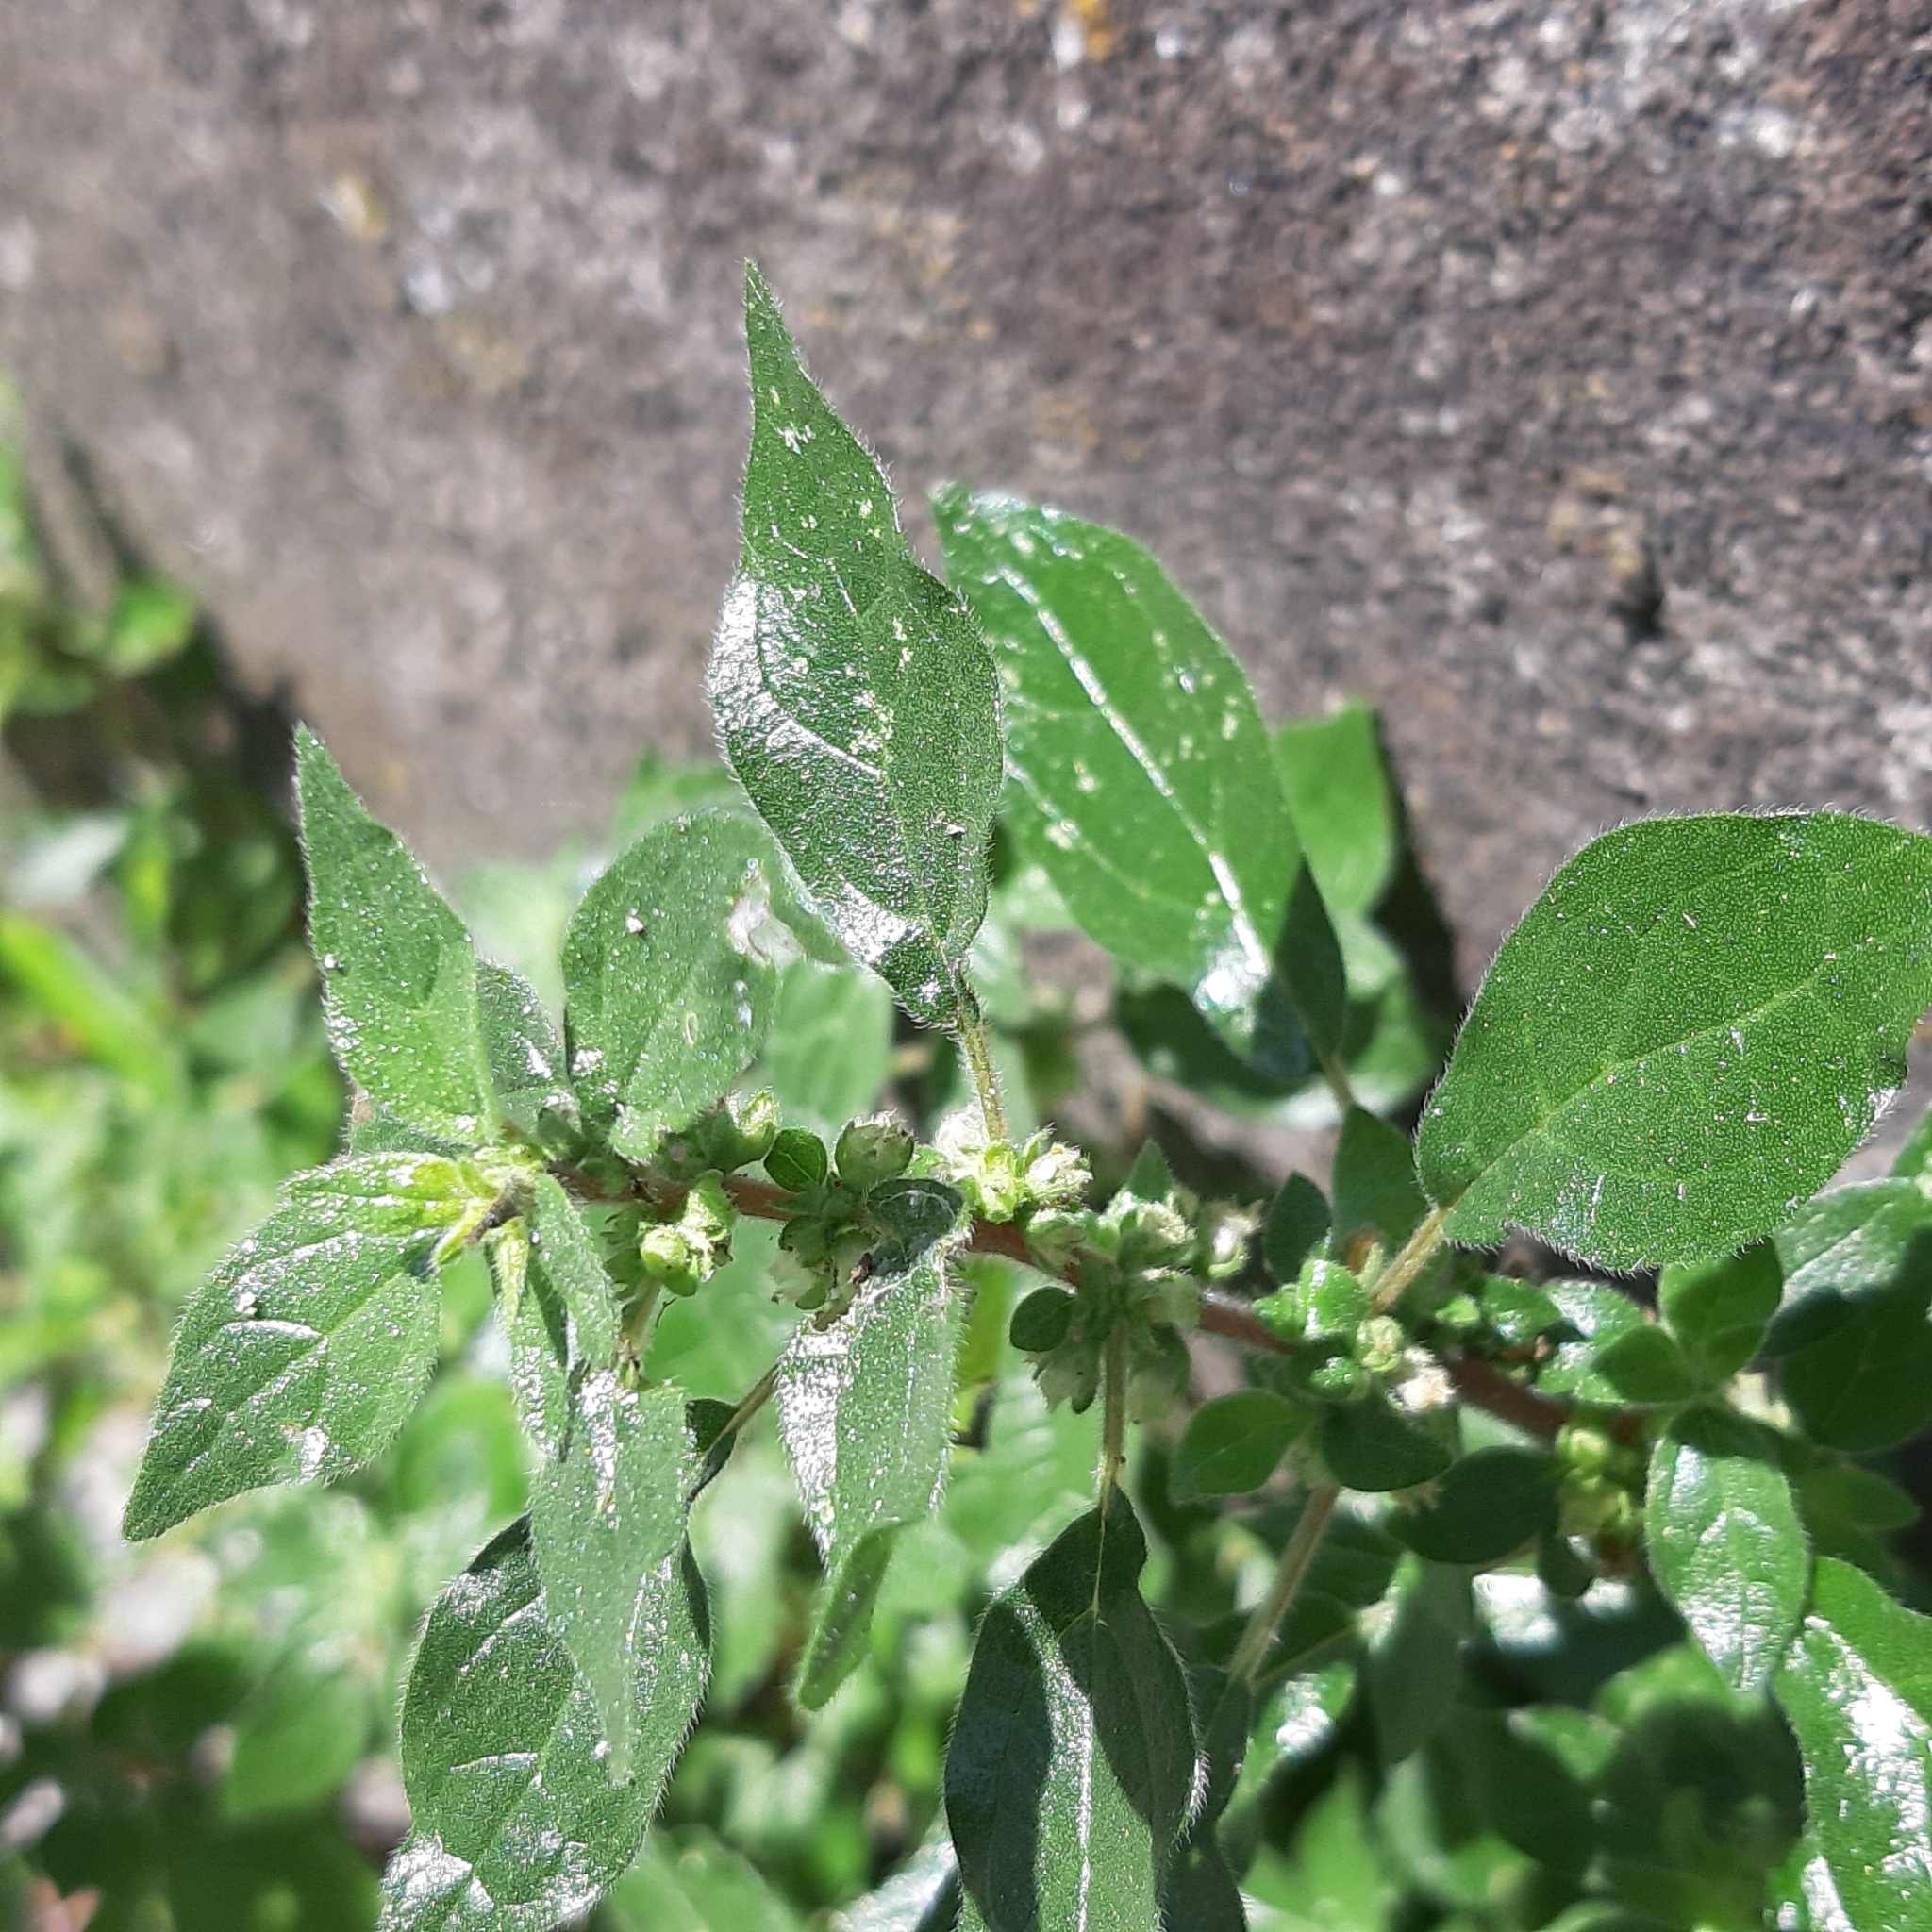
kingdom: Plantae
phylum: Tracheophyta
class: Magnoliopsida
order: Rosales
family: Urticaceae
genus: Parietaria
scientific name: Parietaria judaica
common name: Pellitory-of-the-wall
